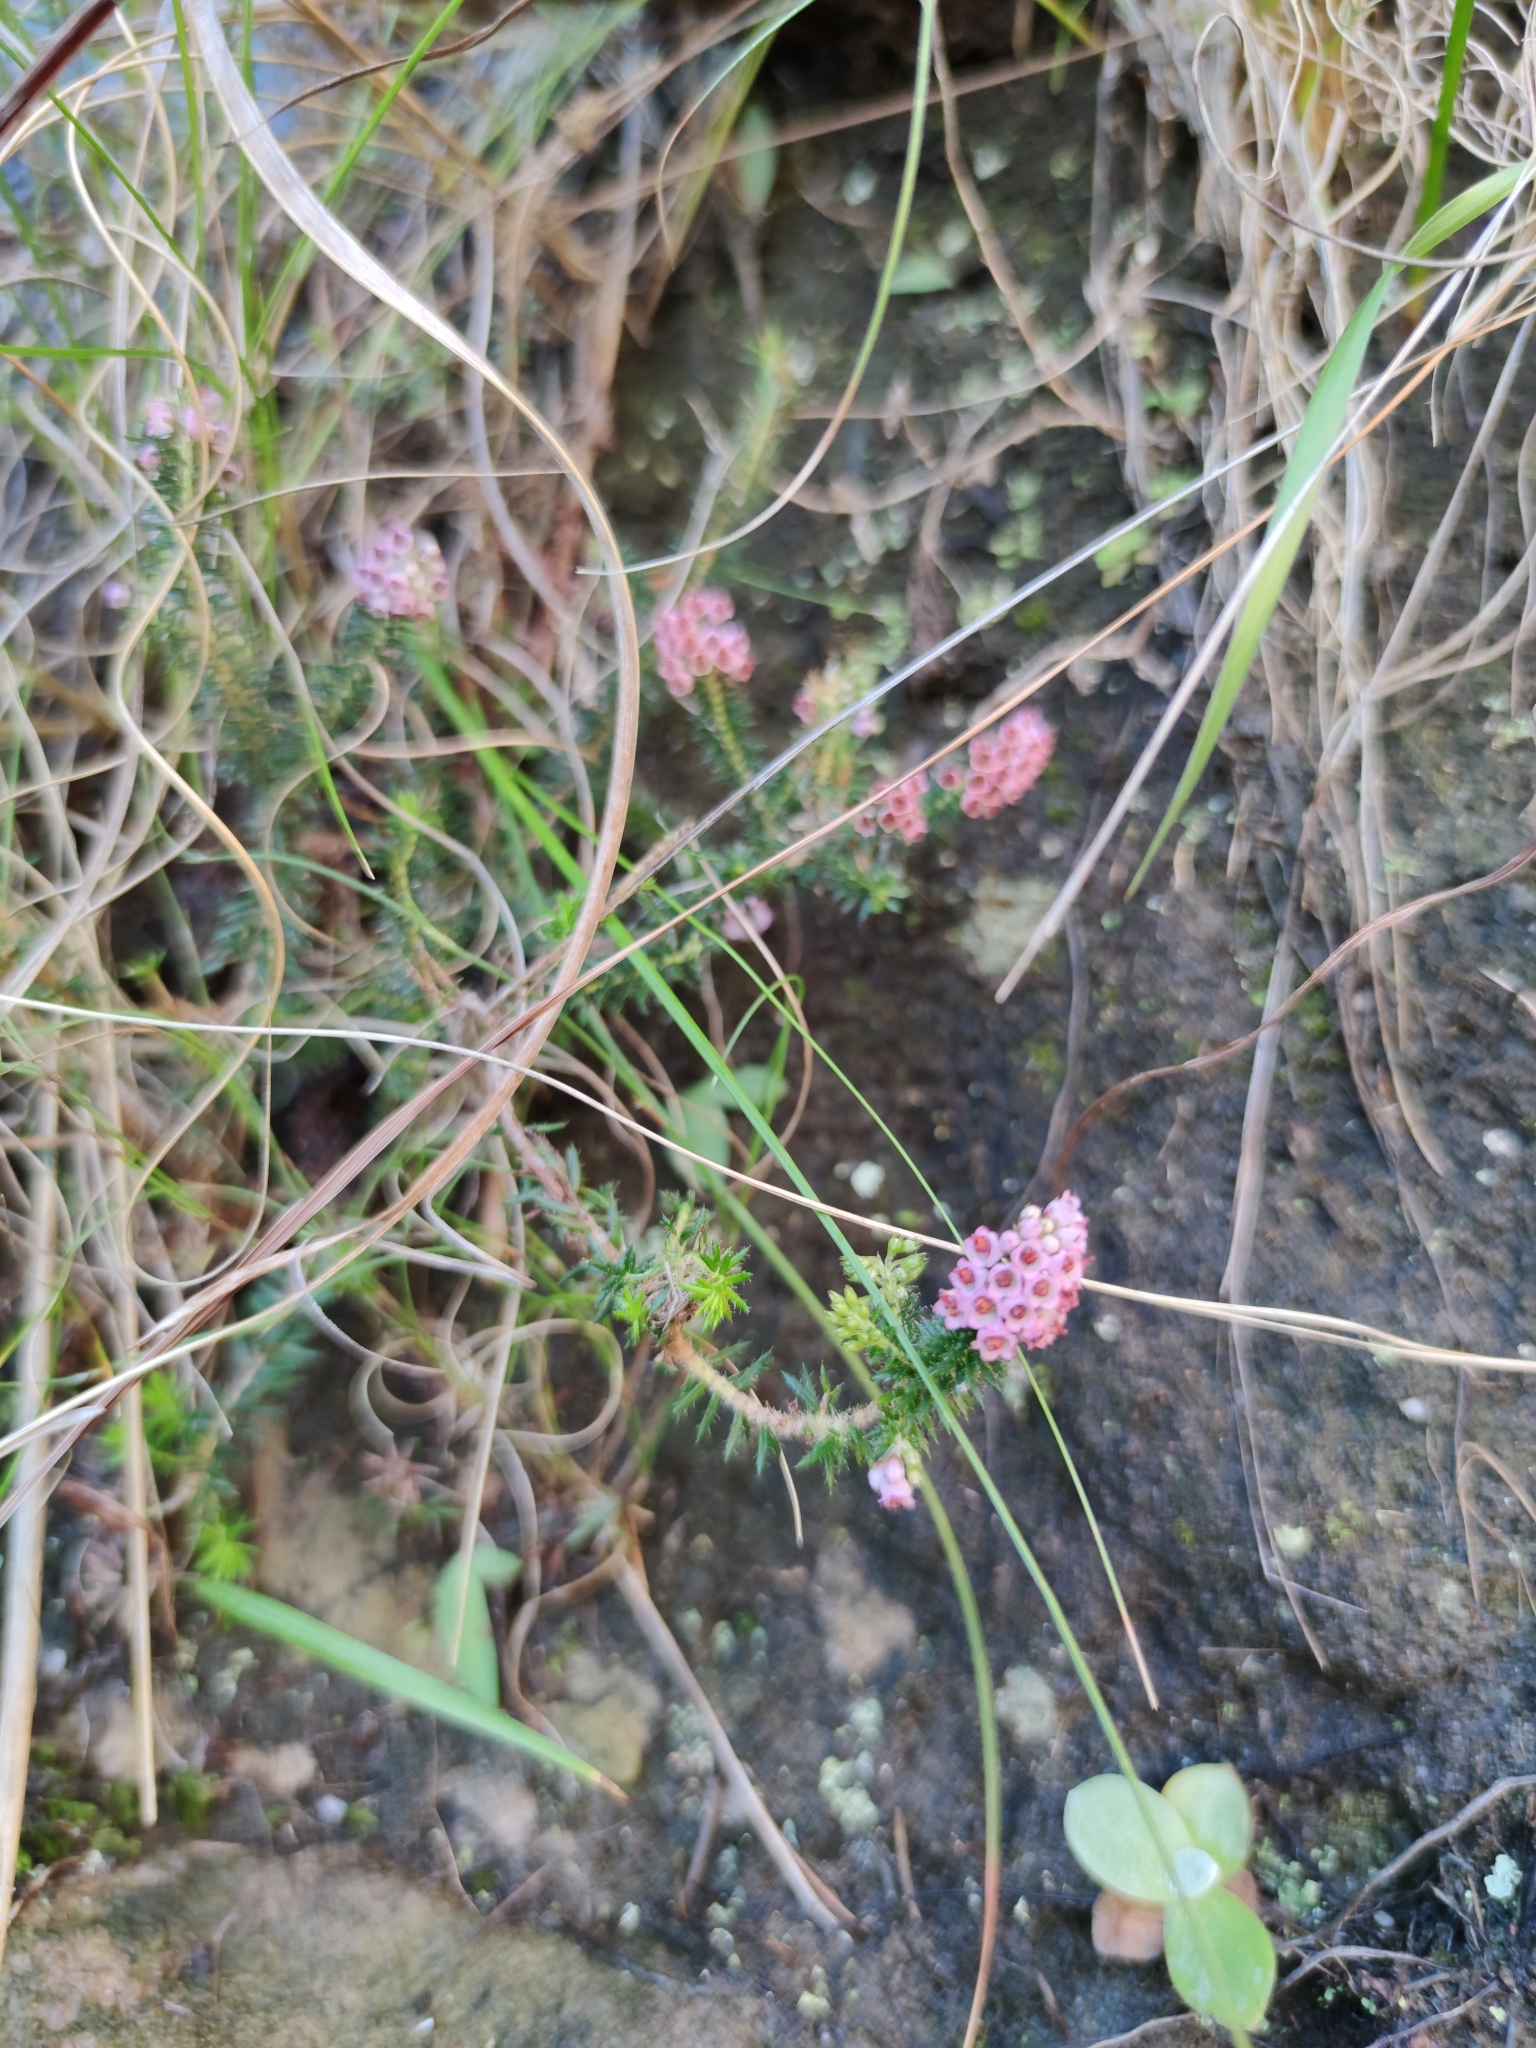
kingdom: Plantae
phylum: Tracheophyta
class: Magnoliopsida
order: Ericales
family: Ericaceae
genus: Erica
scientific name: Erica strigosa
